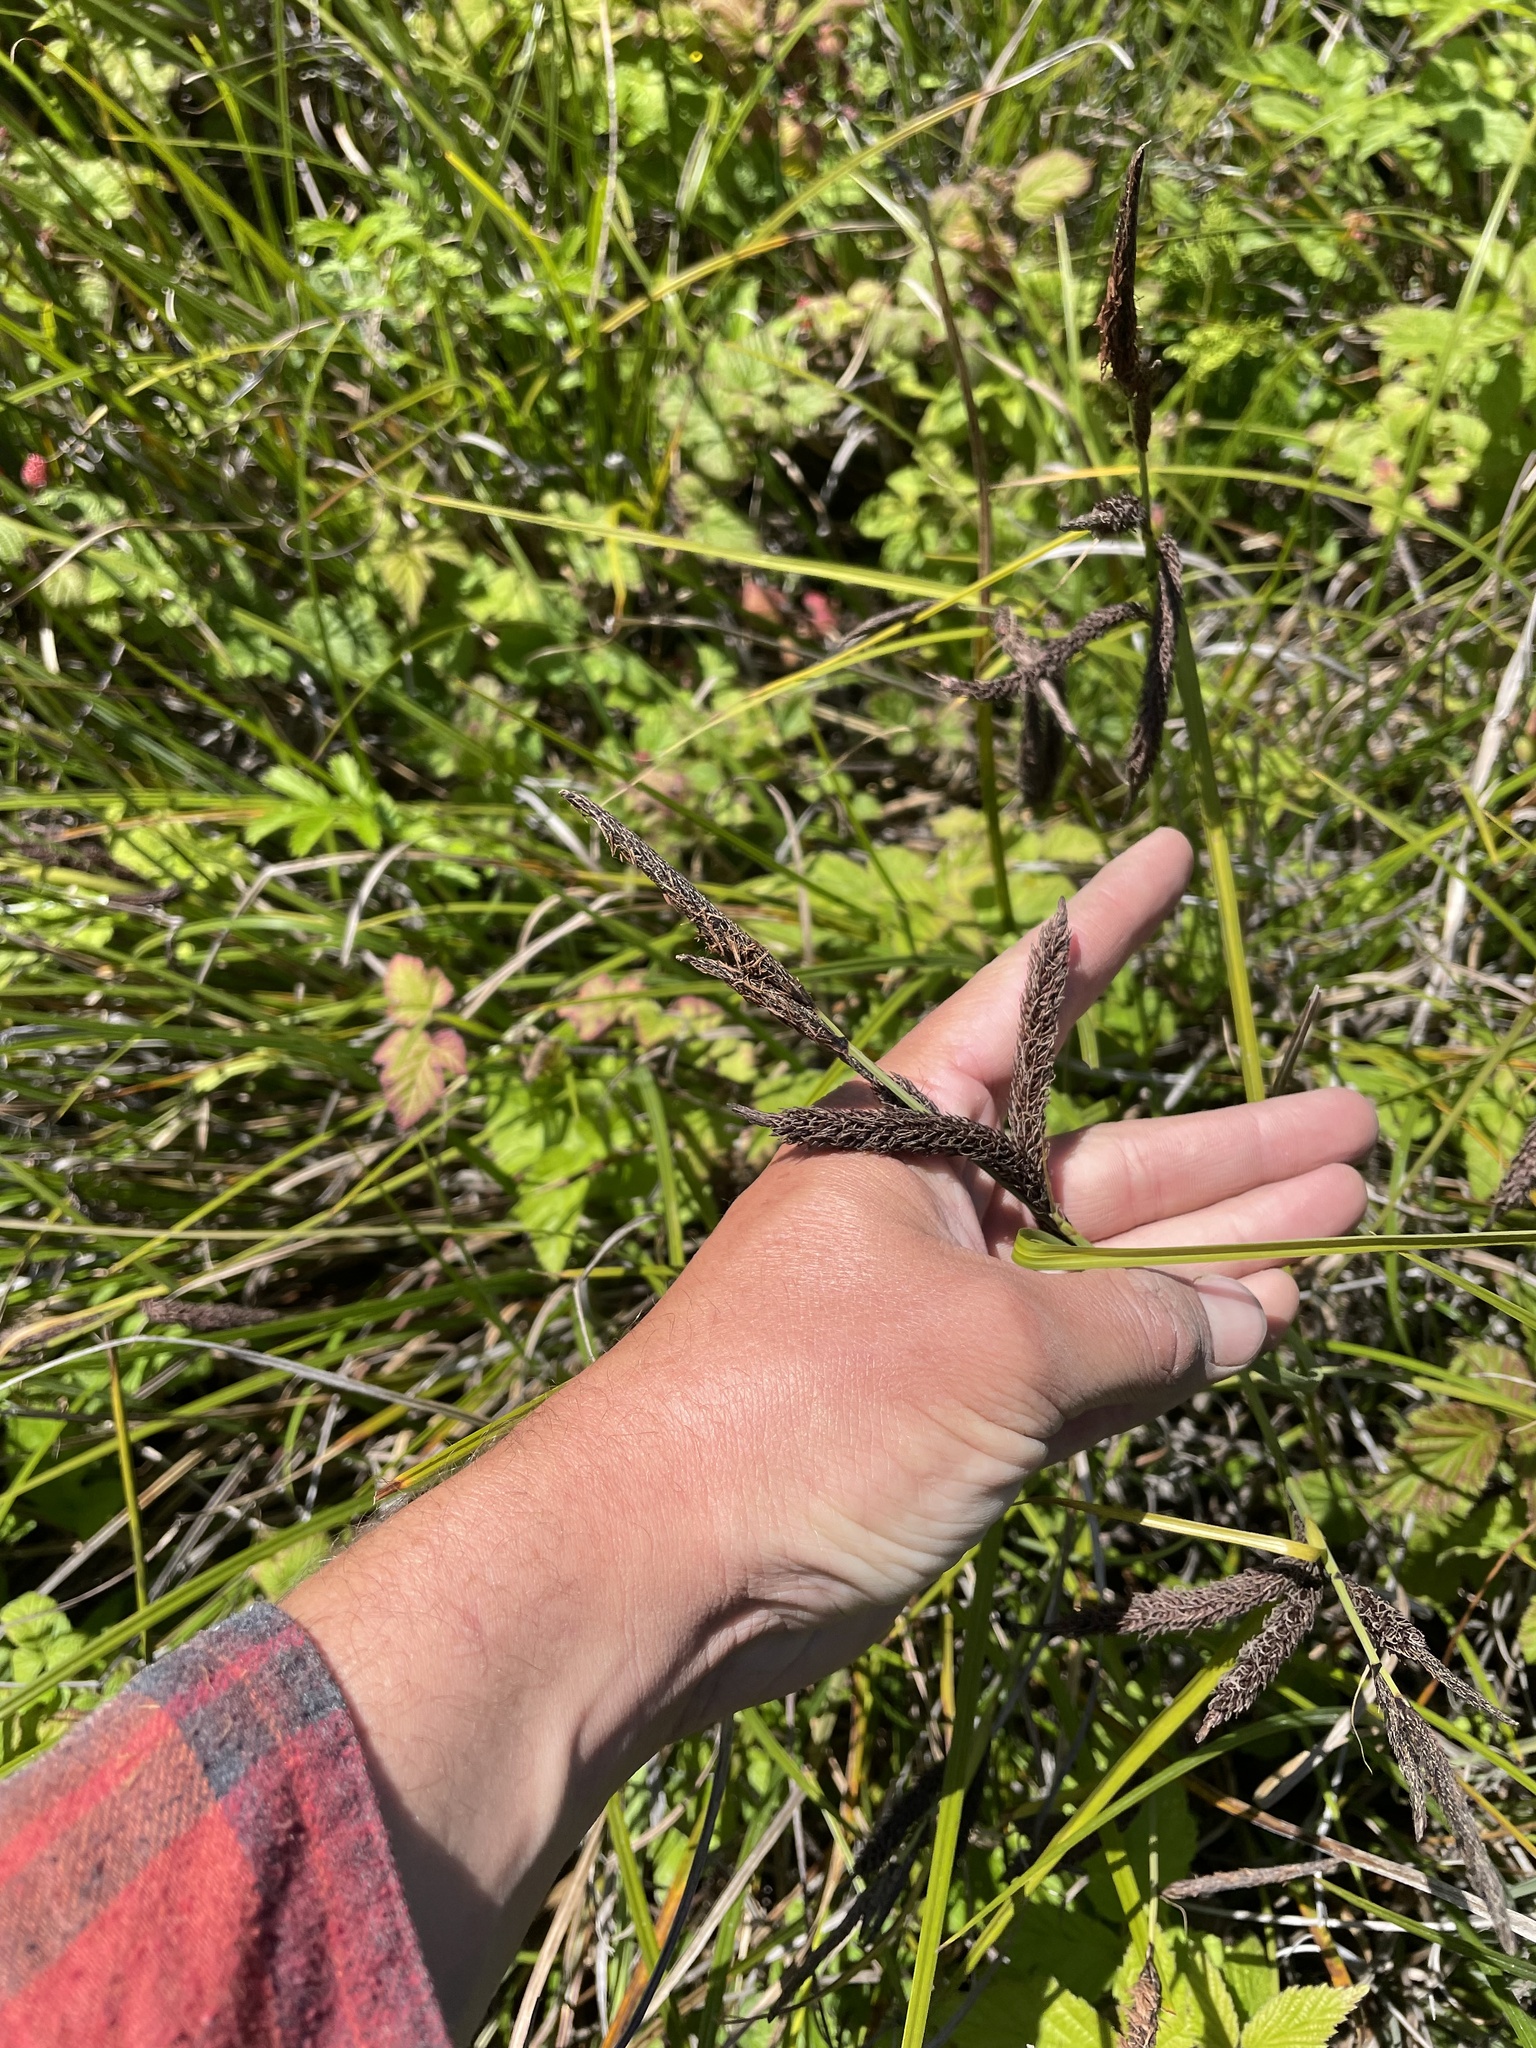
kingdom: Plantae
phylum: Tracheophyta
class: Liliopsida
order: Poales
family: Cyperaceae
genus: Carex
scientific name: Carex obnupta
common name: Slough sedge
